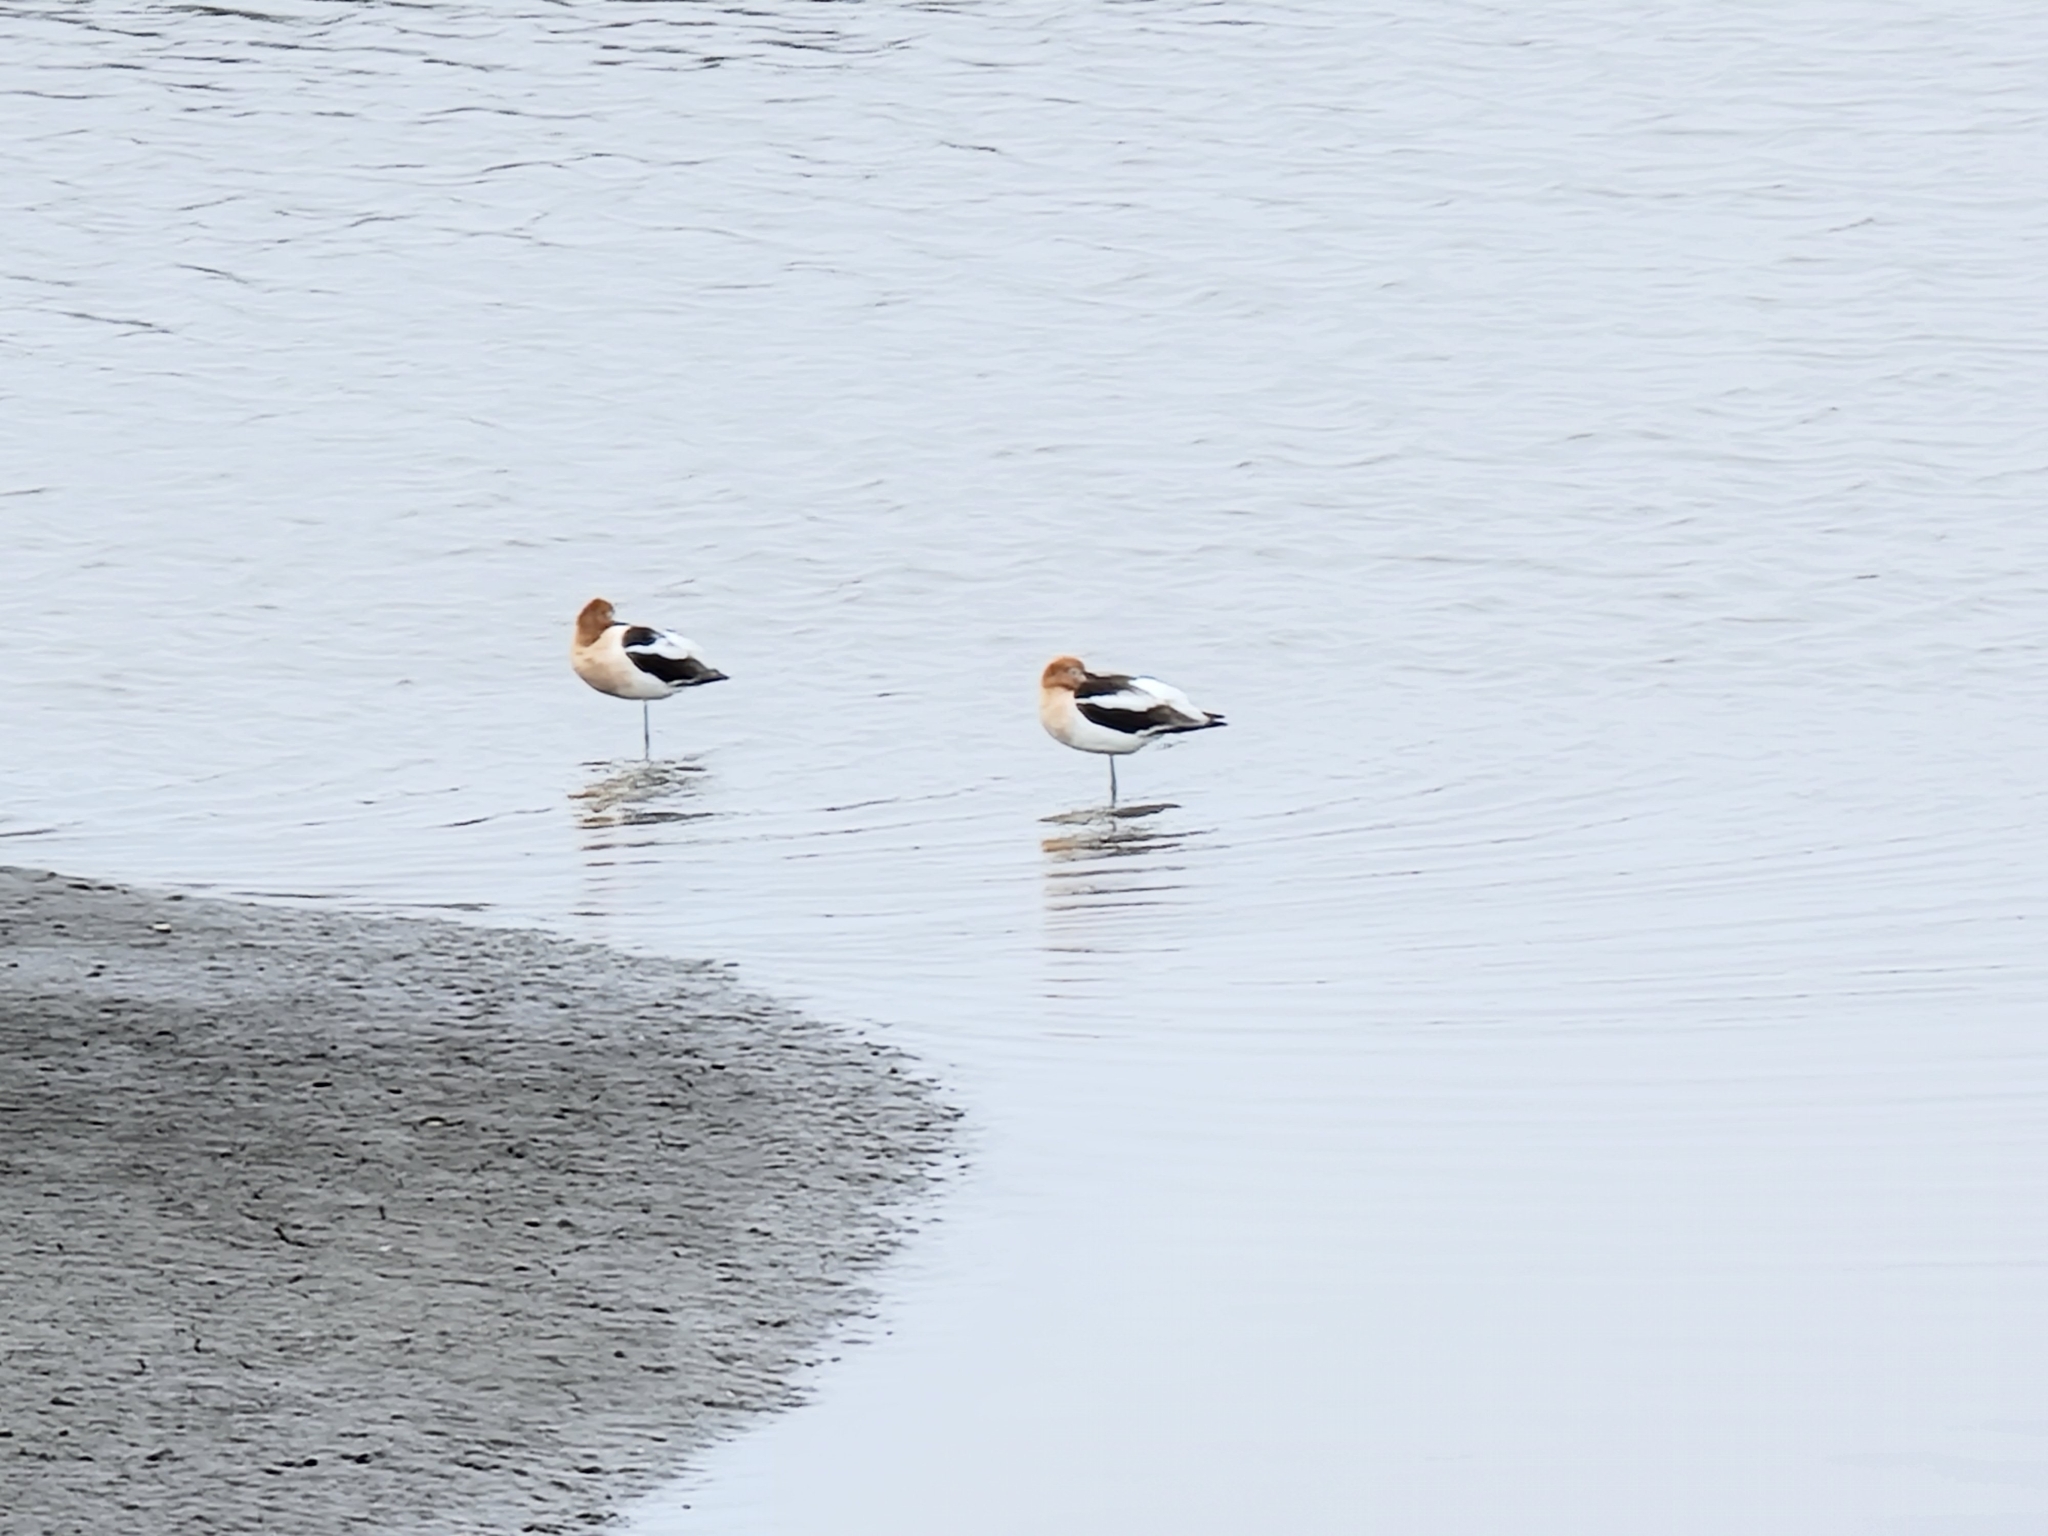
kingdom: Animalia
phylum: Chordata
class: Aves
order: Charadriiformes
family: Recurvirostridae
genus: Recurvirostra
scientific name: Recurvirostra americana
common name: American avocet
